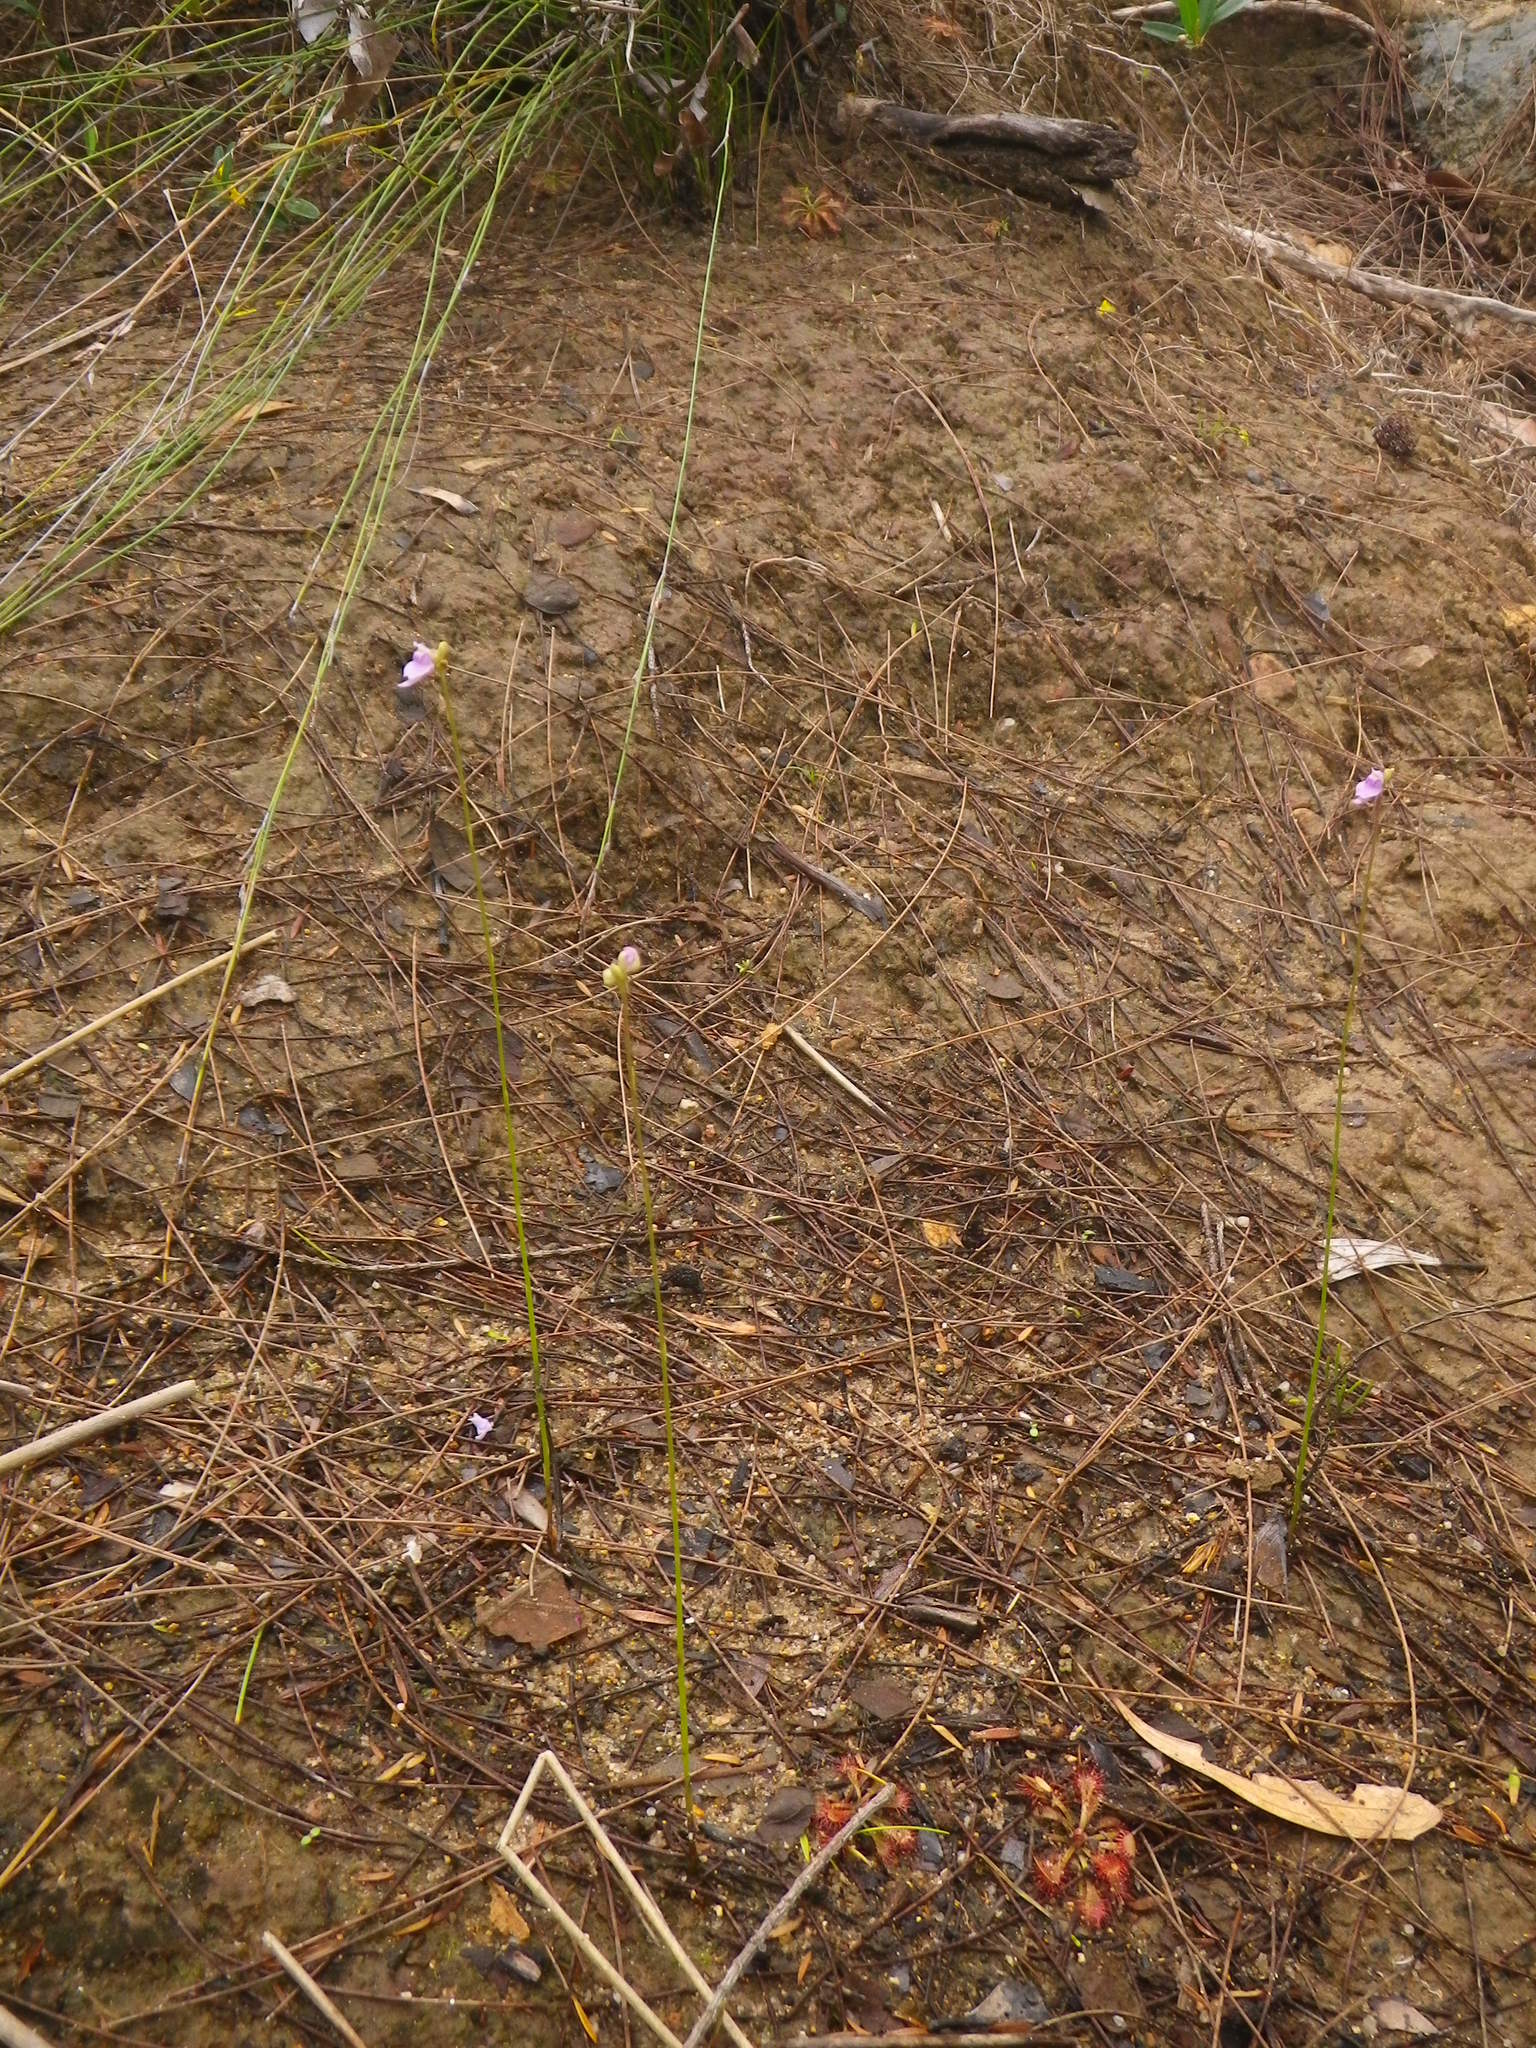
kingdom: Plantae
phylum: Tracheophyta
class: Magnoliopsida
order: Lamiales
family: Lentibulariaceae
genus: Utricularia
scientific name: Utricularia caerulea
